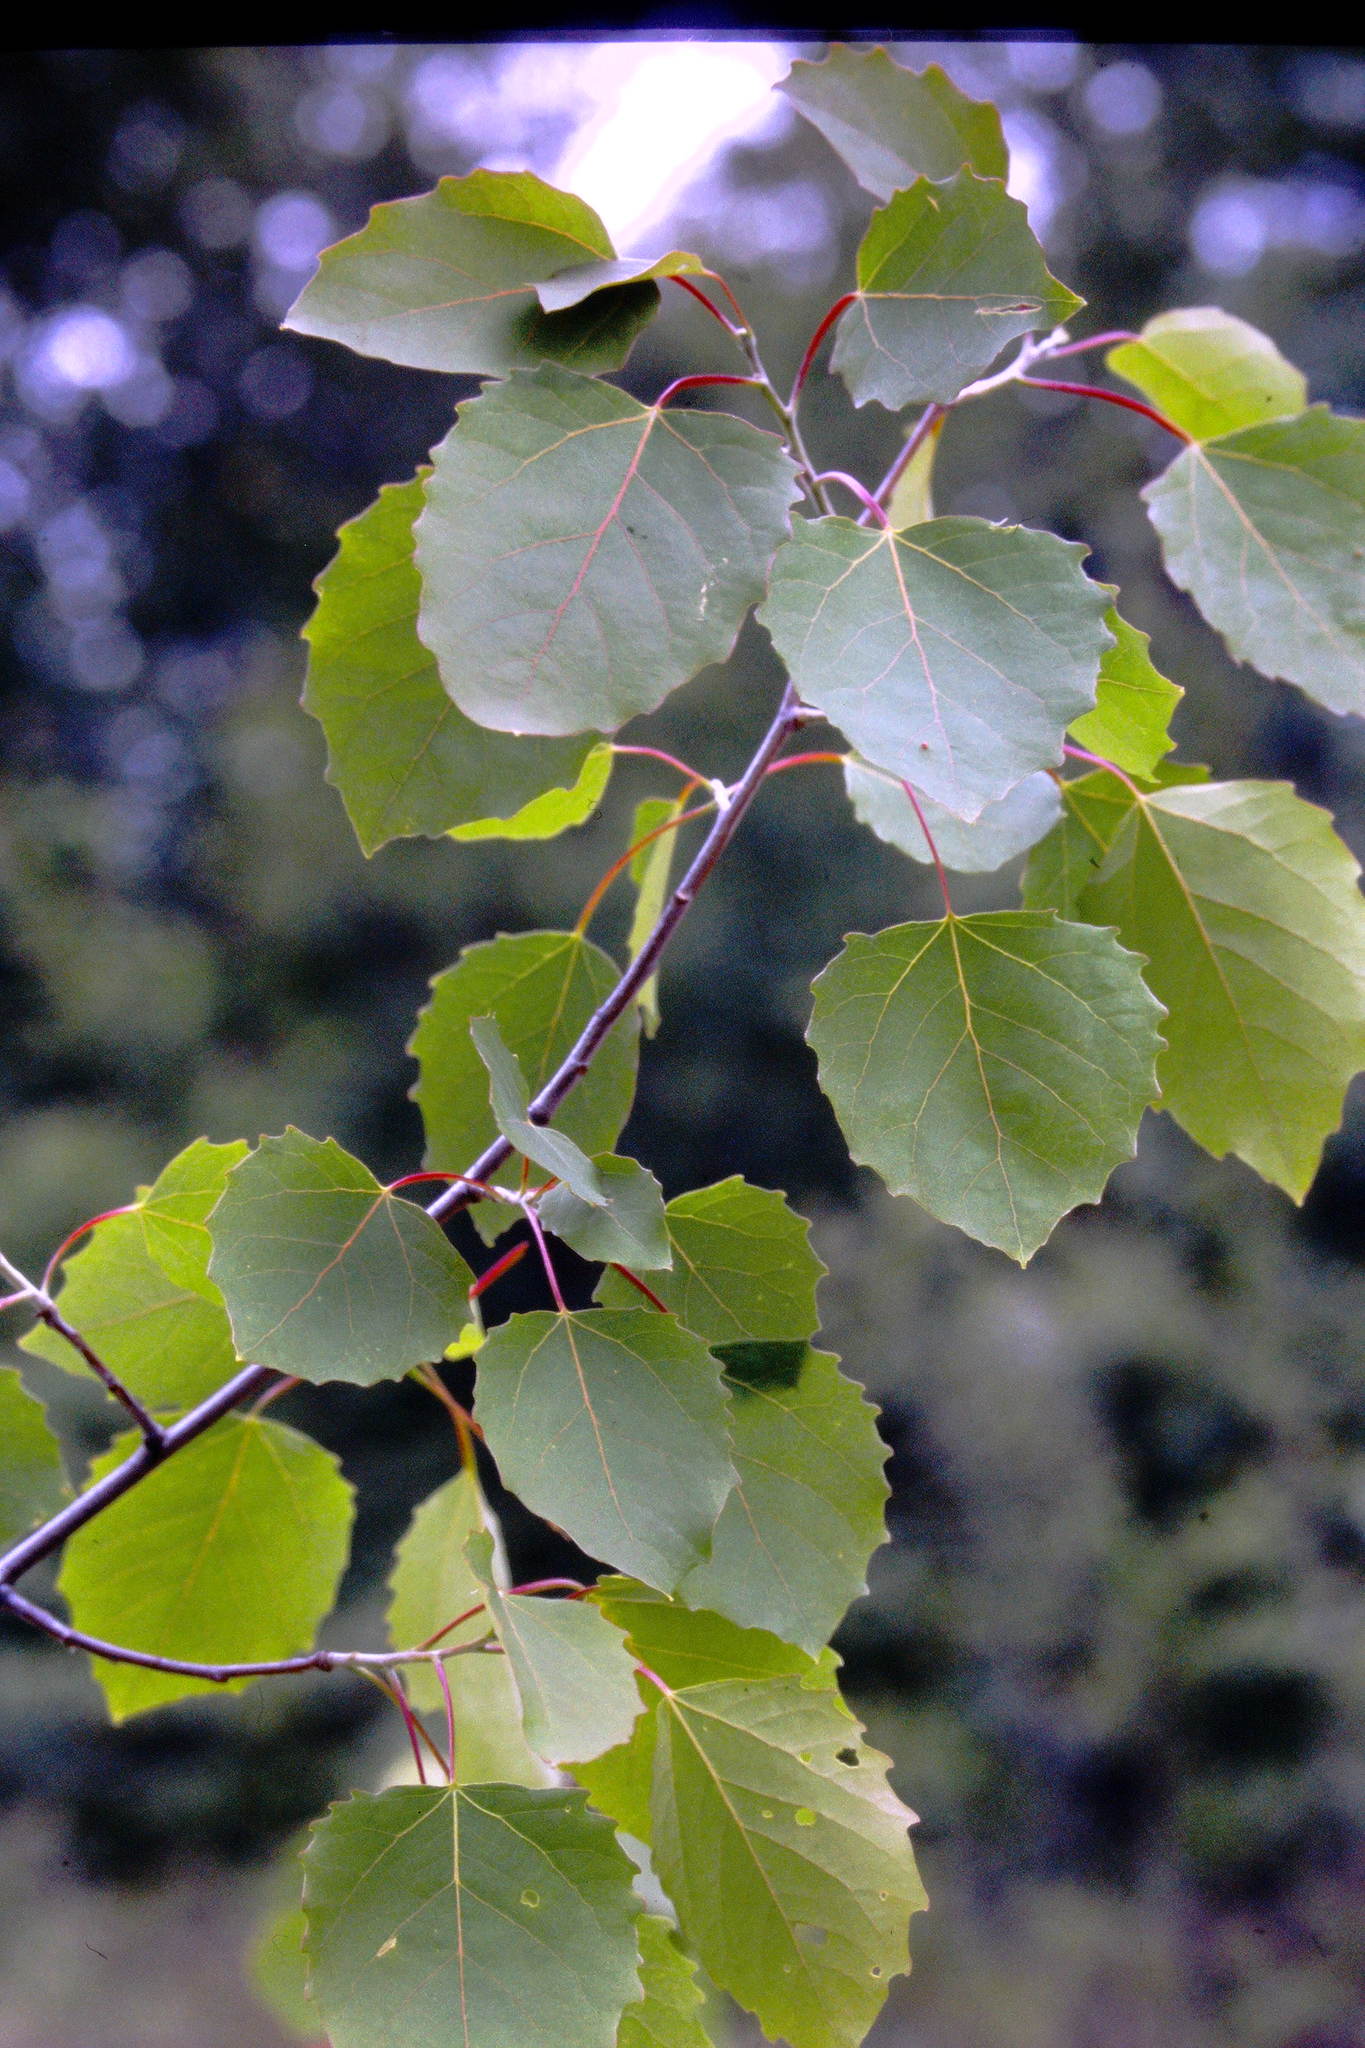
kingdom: Plantae
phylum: Tracheophyta
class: Magnoliopsida
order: Malpighiales
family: Salicaceae
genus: Populus
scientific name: Populus grandidentata
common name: Bigtooth aspen
